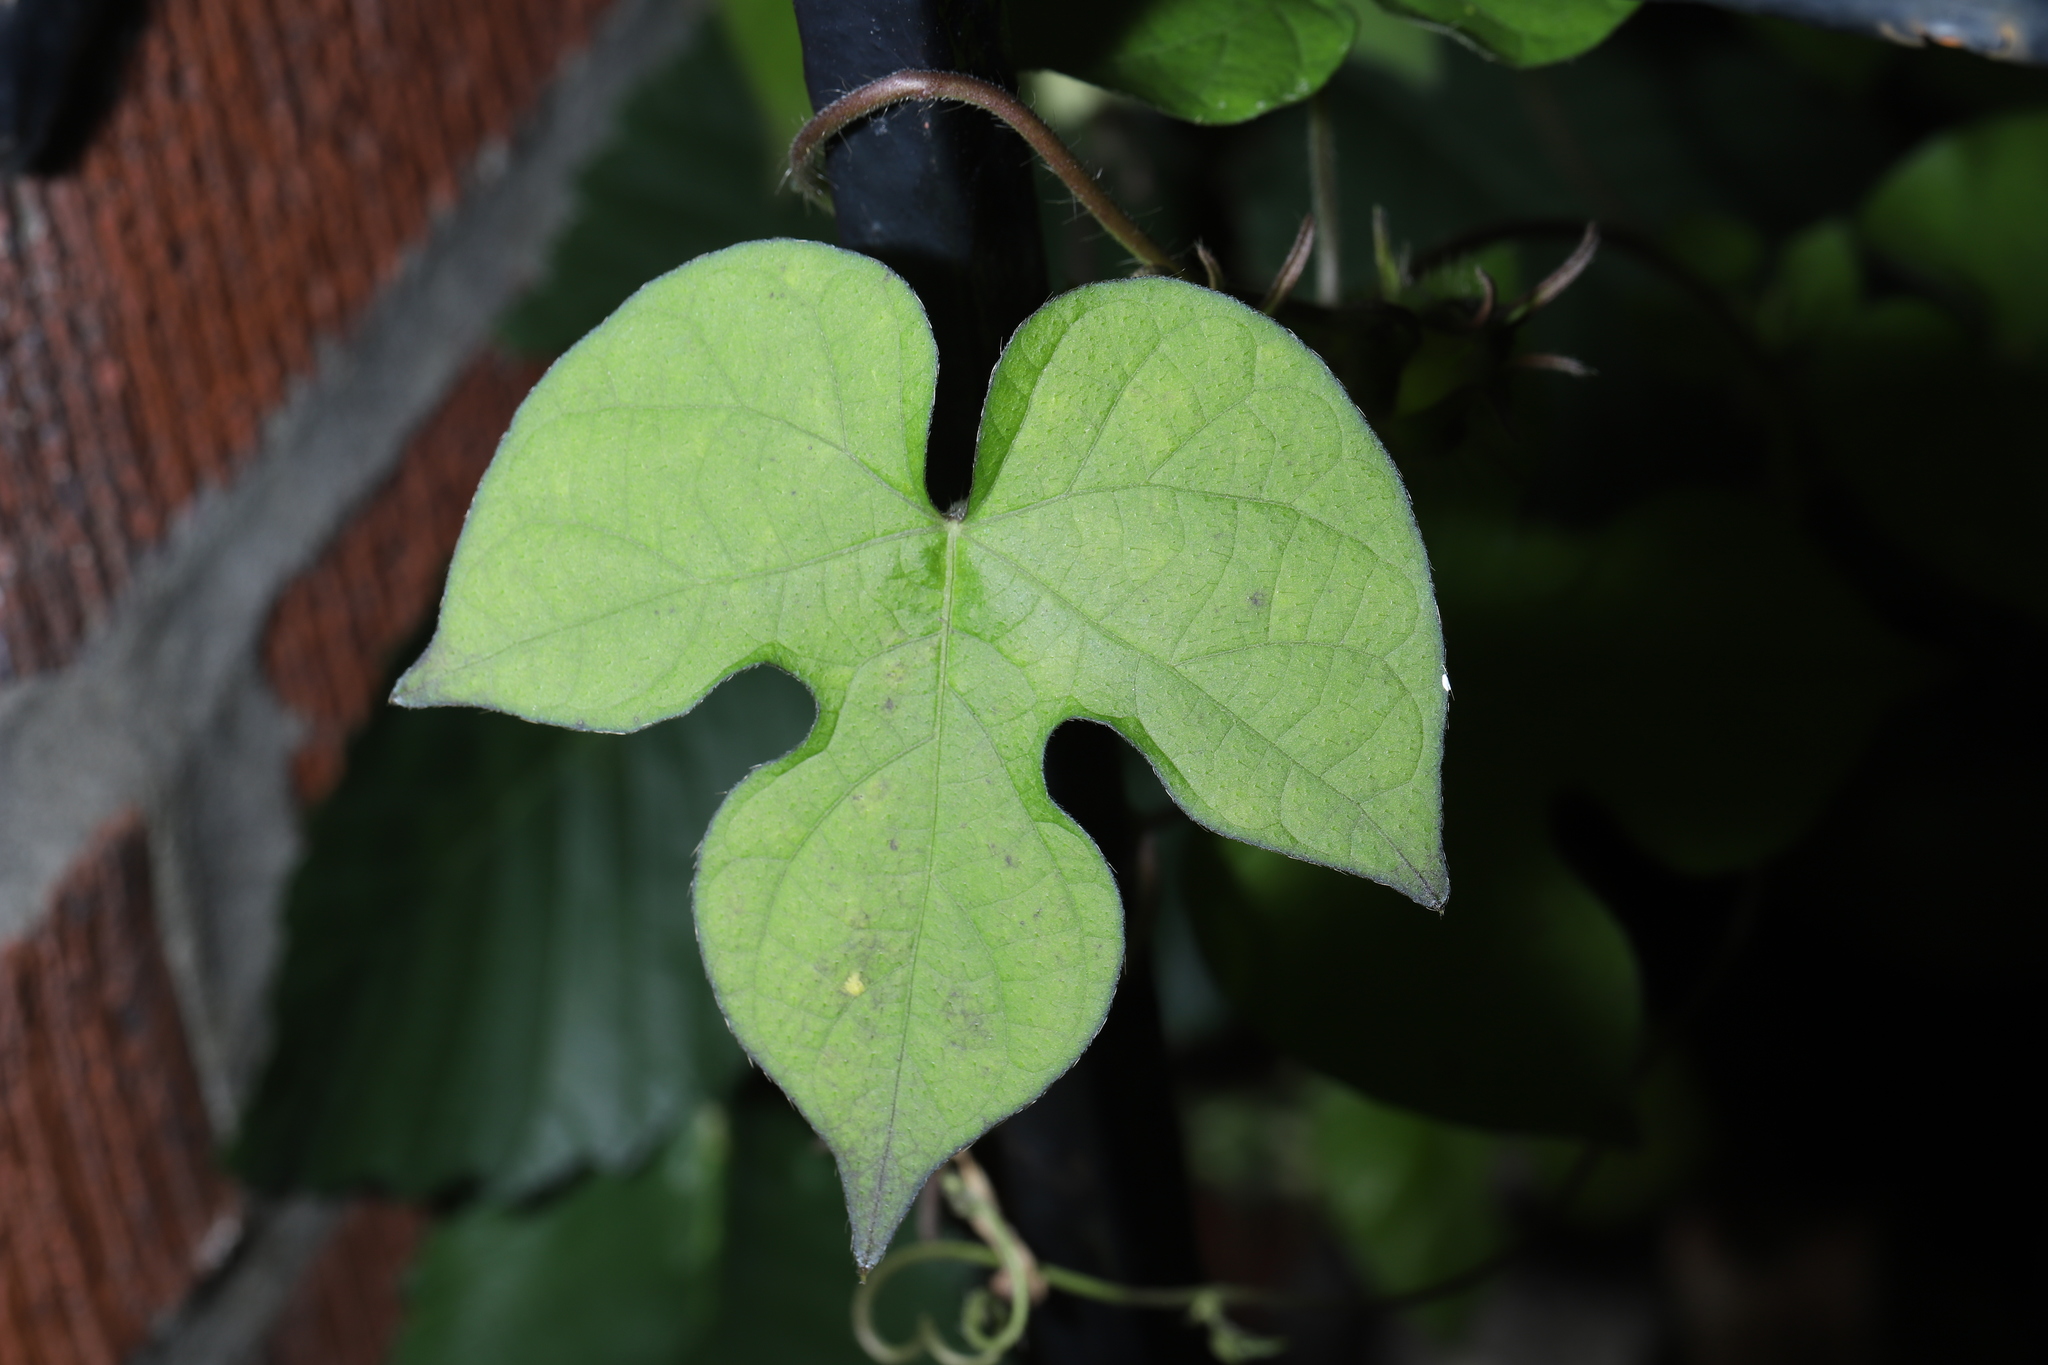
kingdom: Plantae
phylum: Tracheophyta
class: Magnoliopsida
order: Solanales
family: Convolvulaceae
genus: Ipomoea
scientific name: Ipomoea hederacea
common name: Ivy-leaved morning-glory
